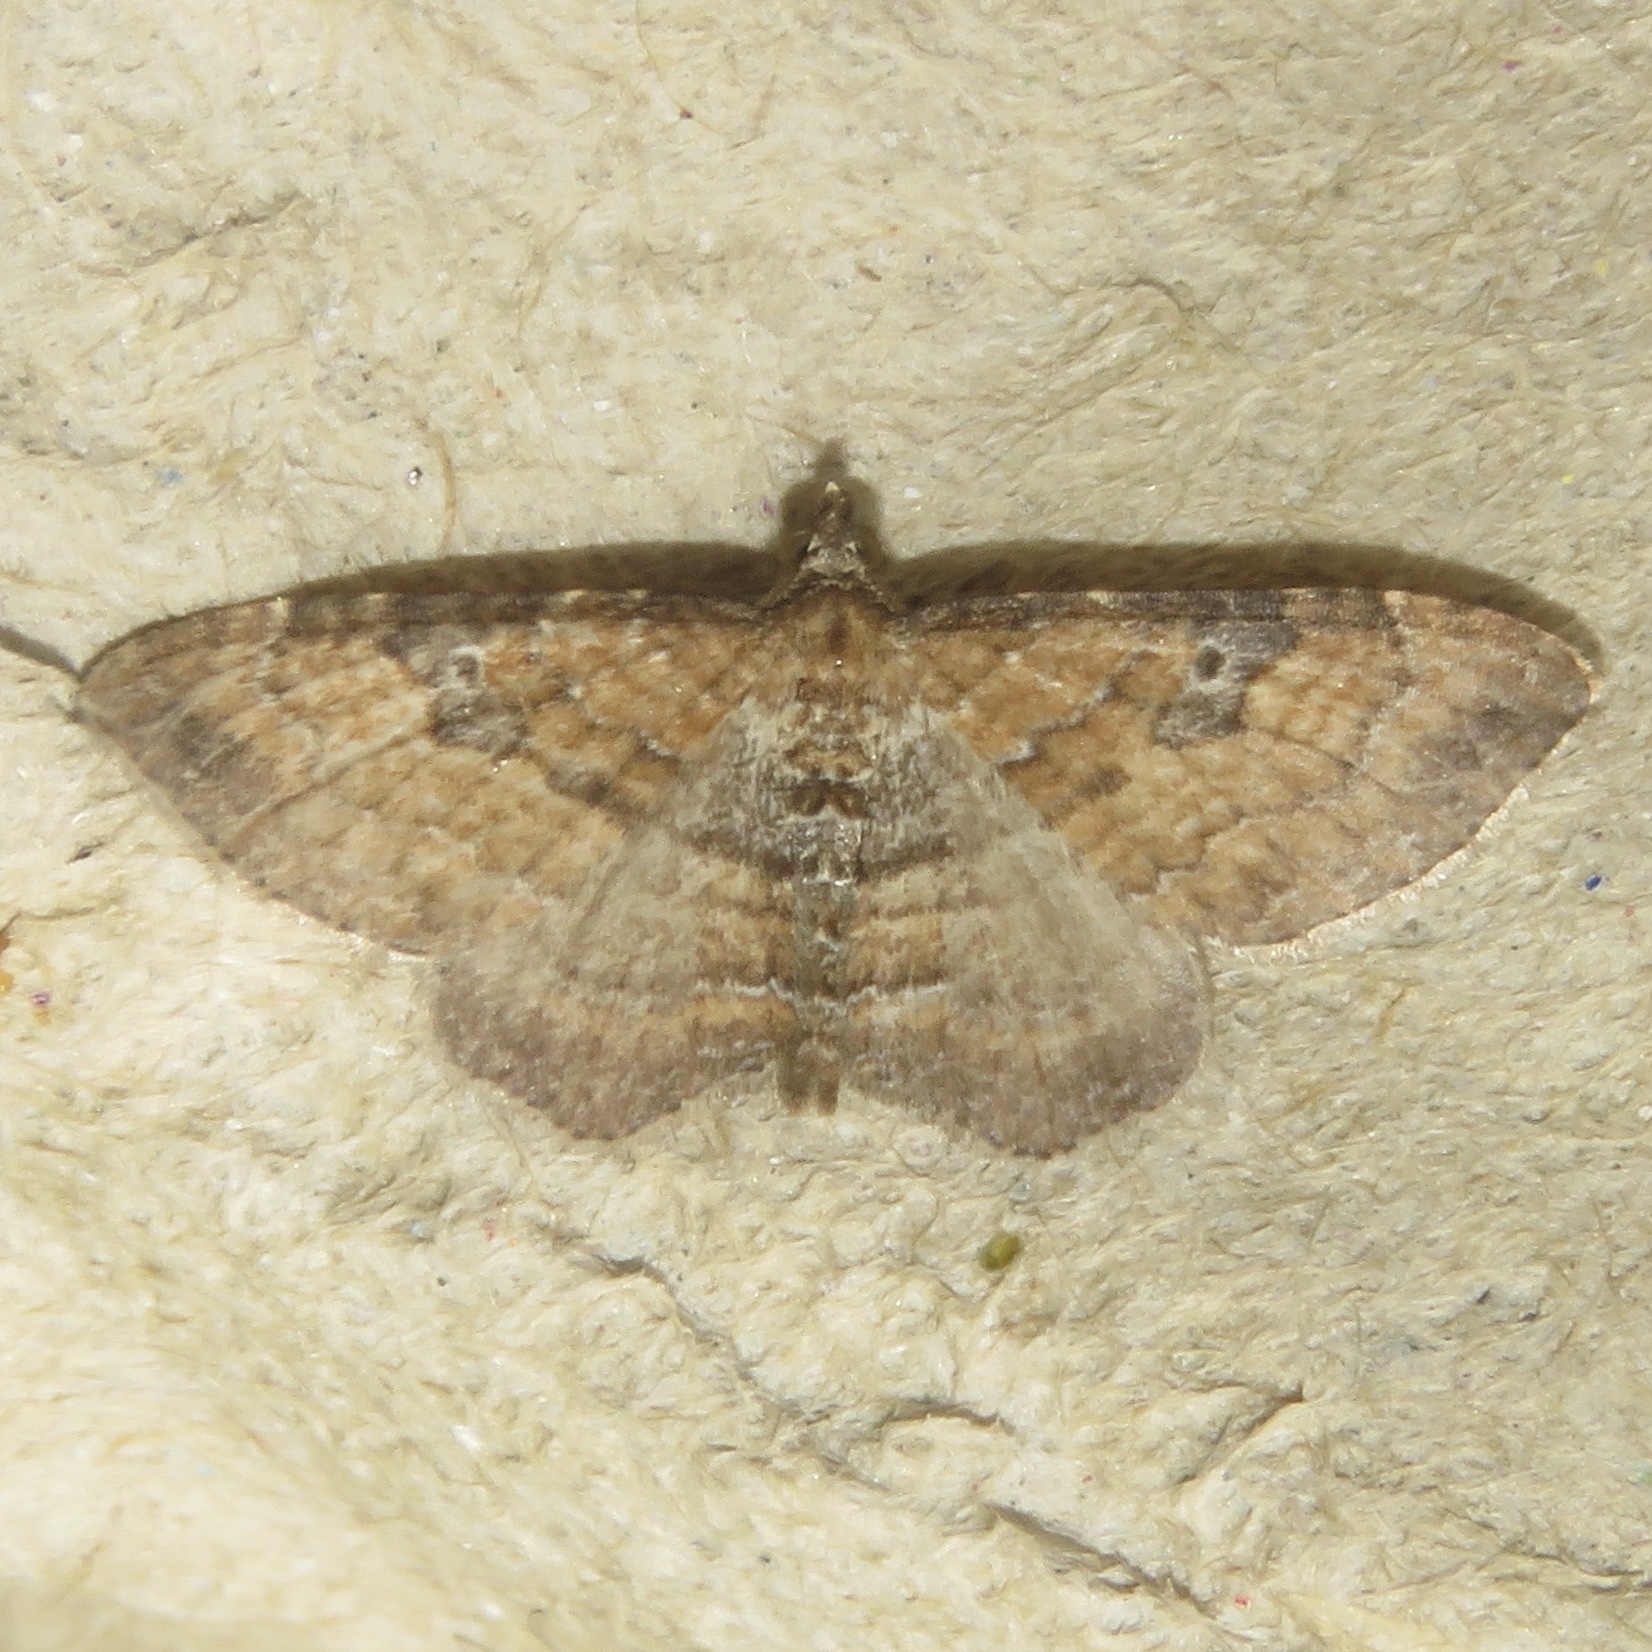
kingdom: Animalia
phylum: Arthropoda
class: Insecta
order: Lepidoptera
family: Geometridae
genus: Orthonama
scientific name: Orthonama obstipata
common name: The gem
